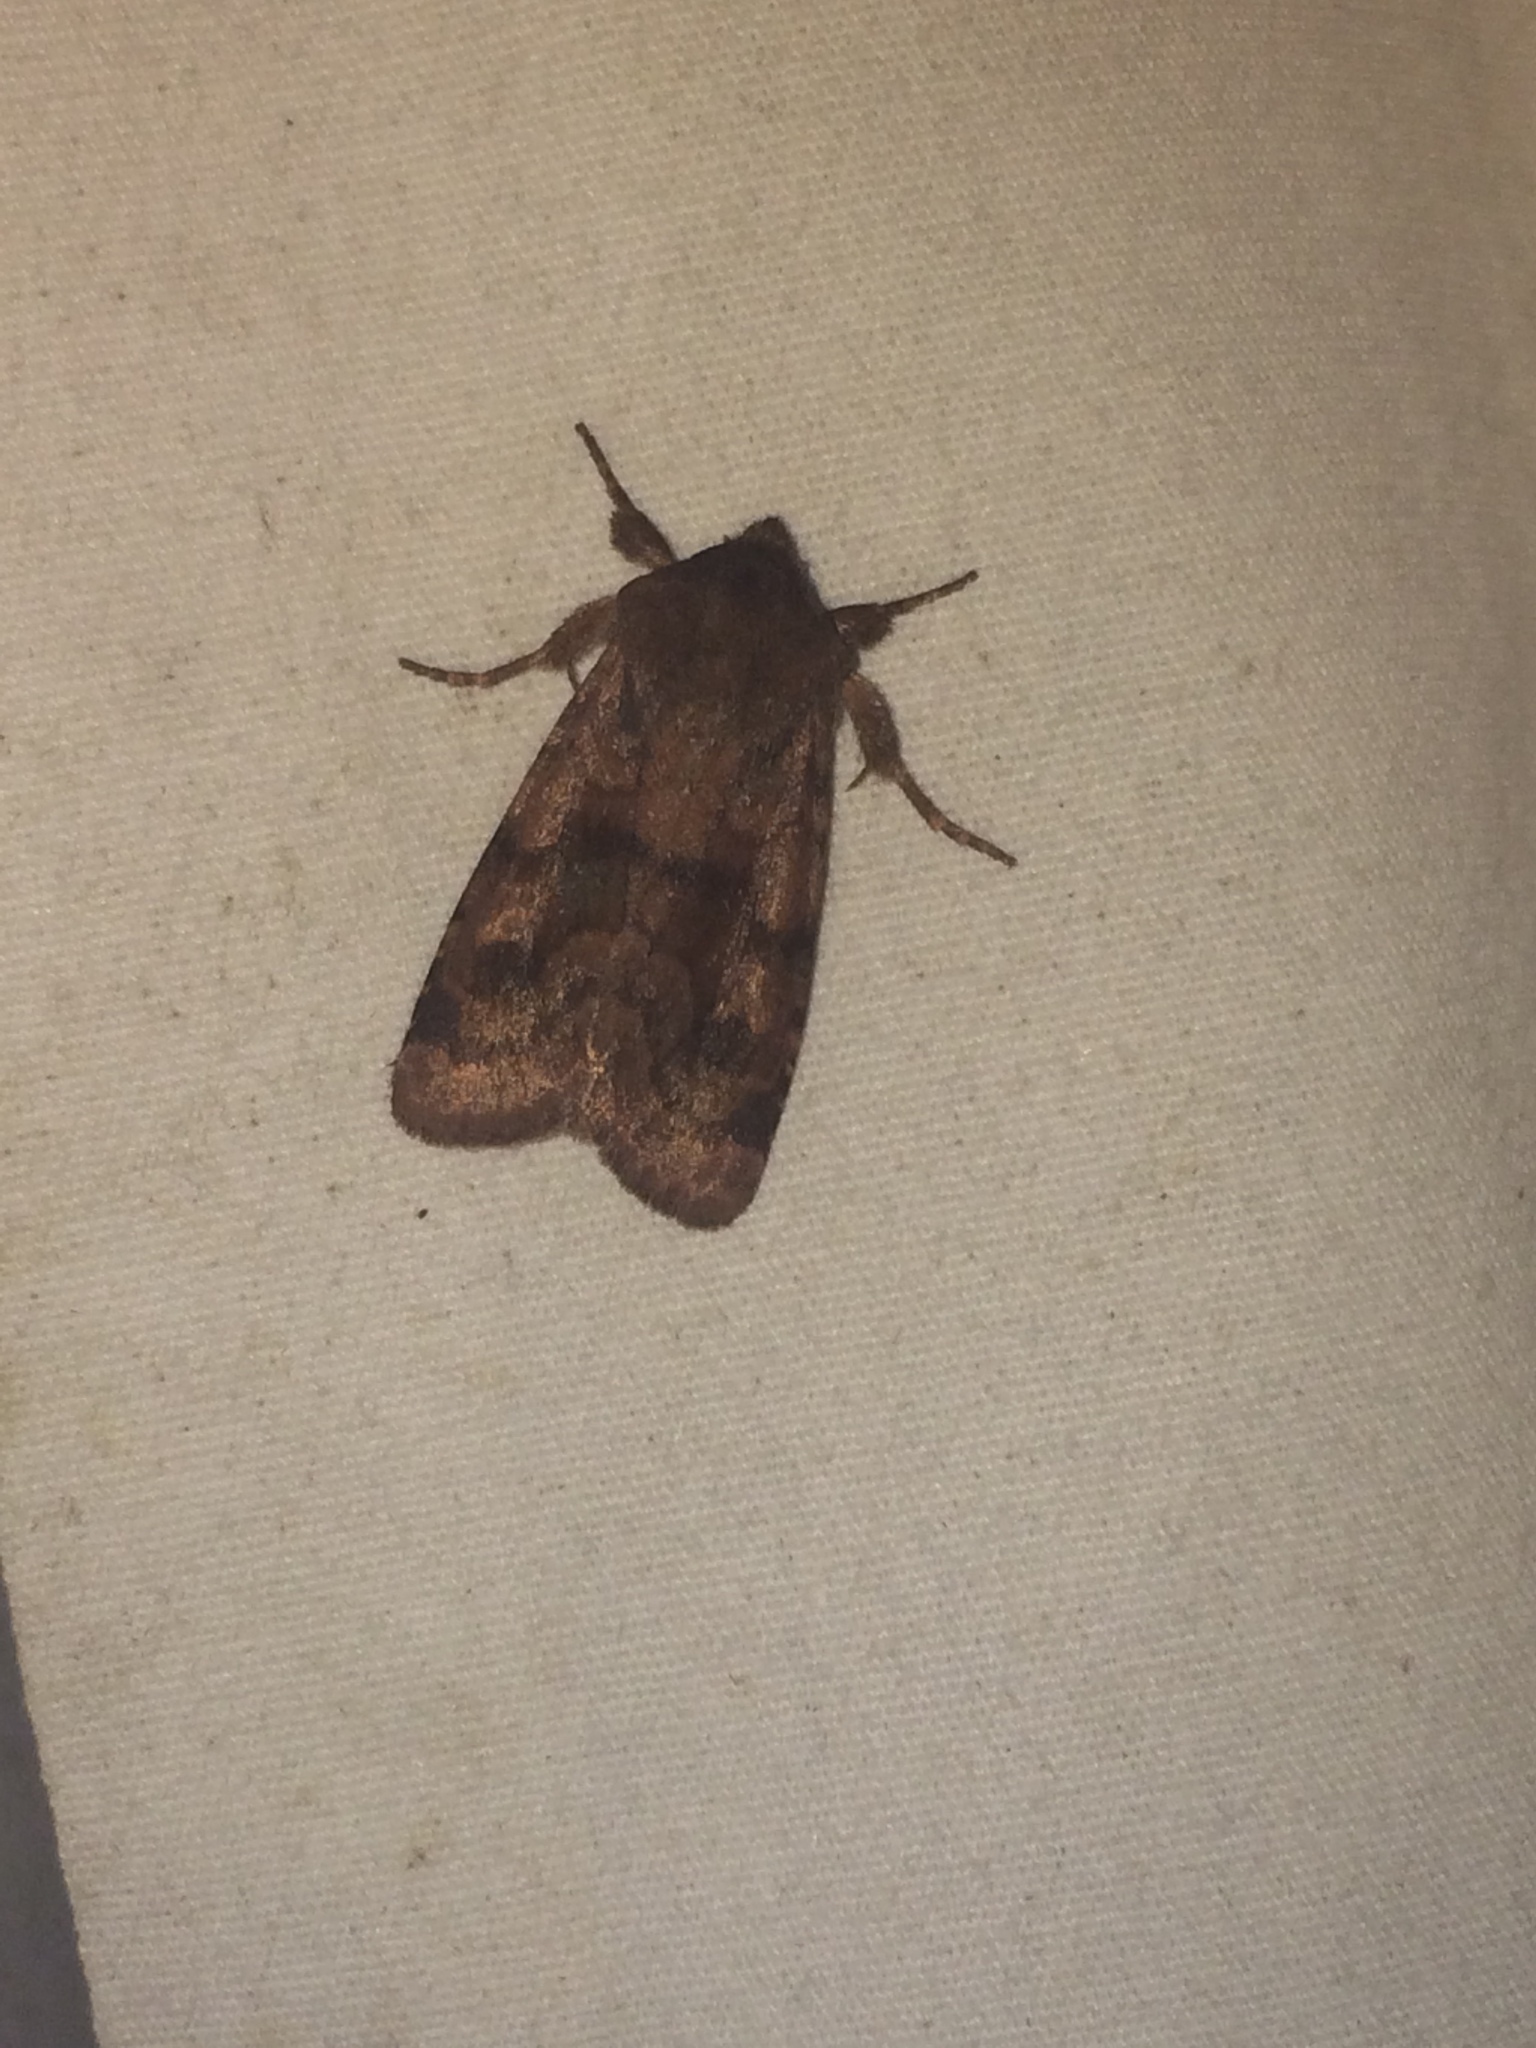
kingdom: Animalia
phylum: Arthropoda
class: Insecta
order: Lepidoptera
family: Noctuidae
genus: Nephelodes
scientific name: Nephelodes minians
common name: Bronzed cutworm
